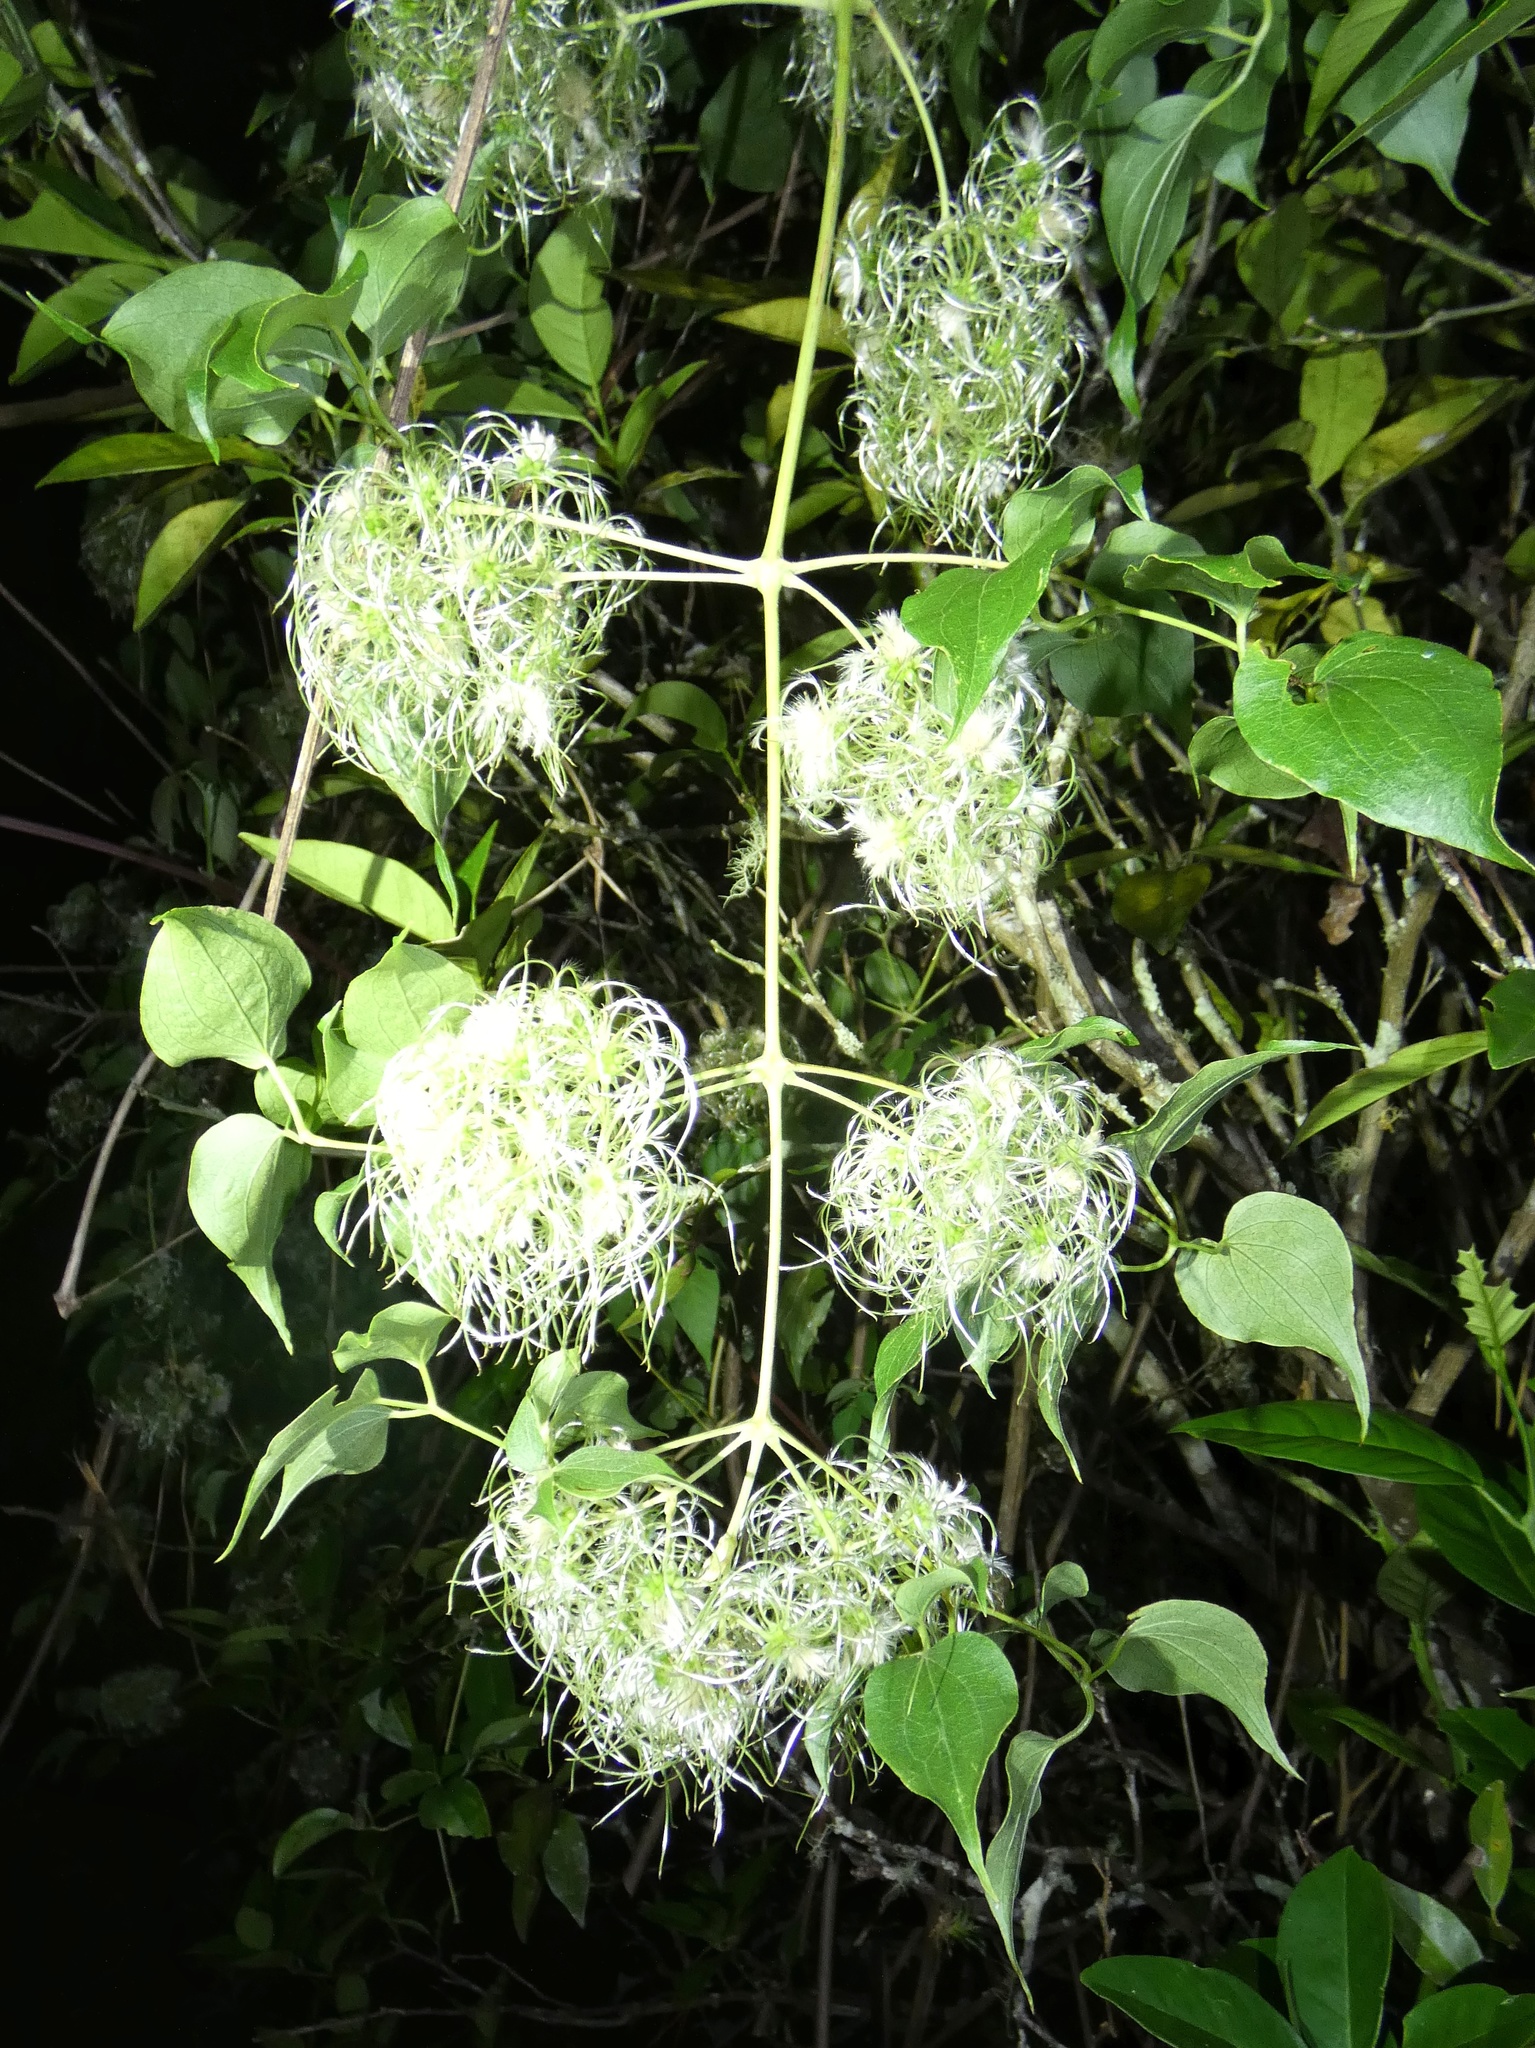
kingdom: Plantae
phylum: Tracheophyta
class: Magnoliopsida
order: Ranunculales
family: Ranunculaceae
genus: Clematis
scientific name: Clematis acapulcensis
